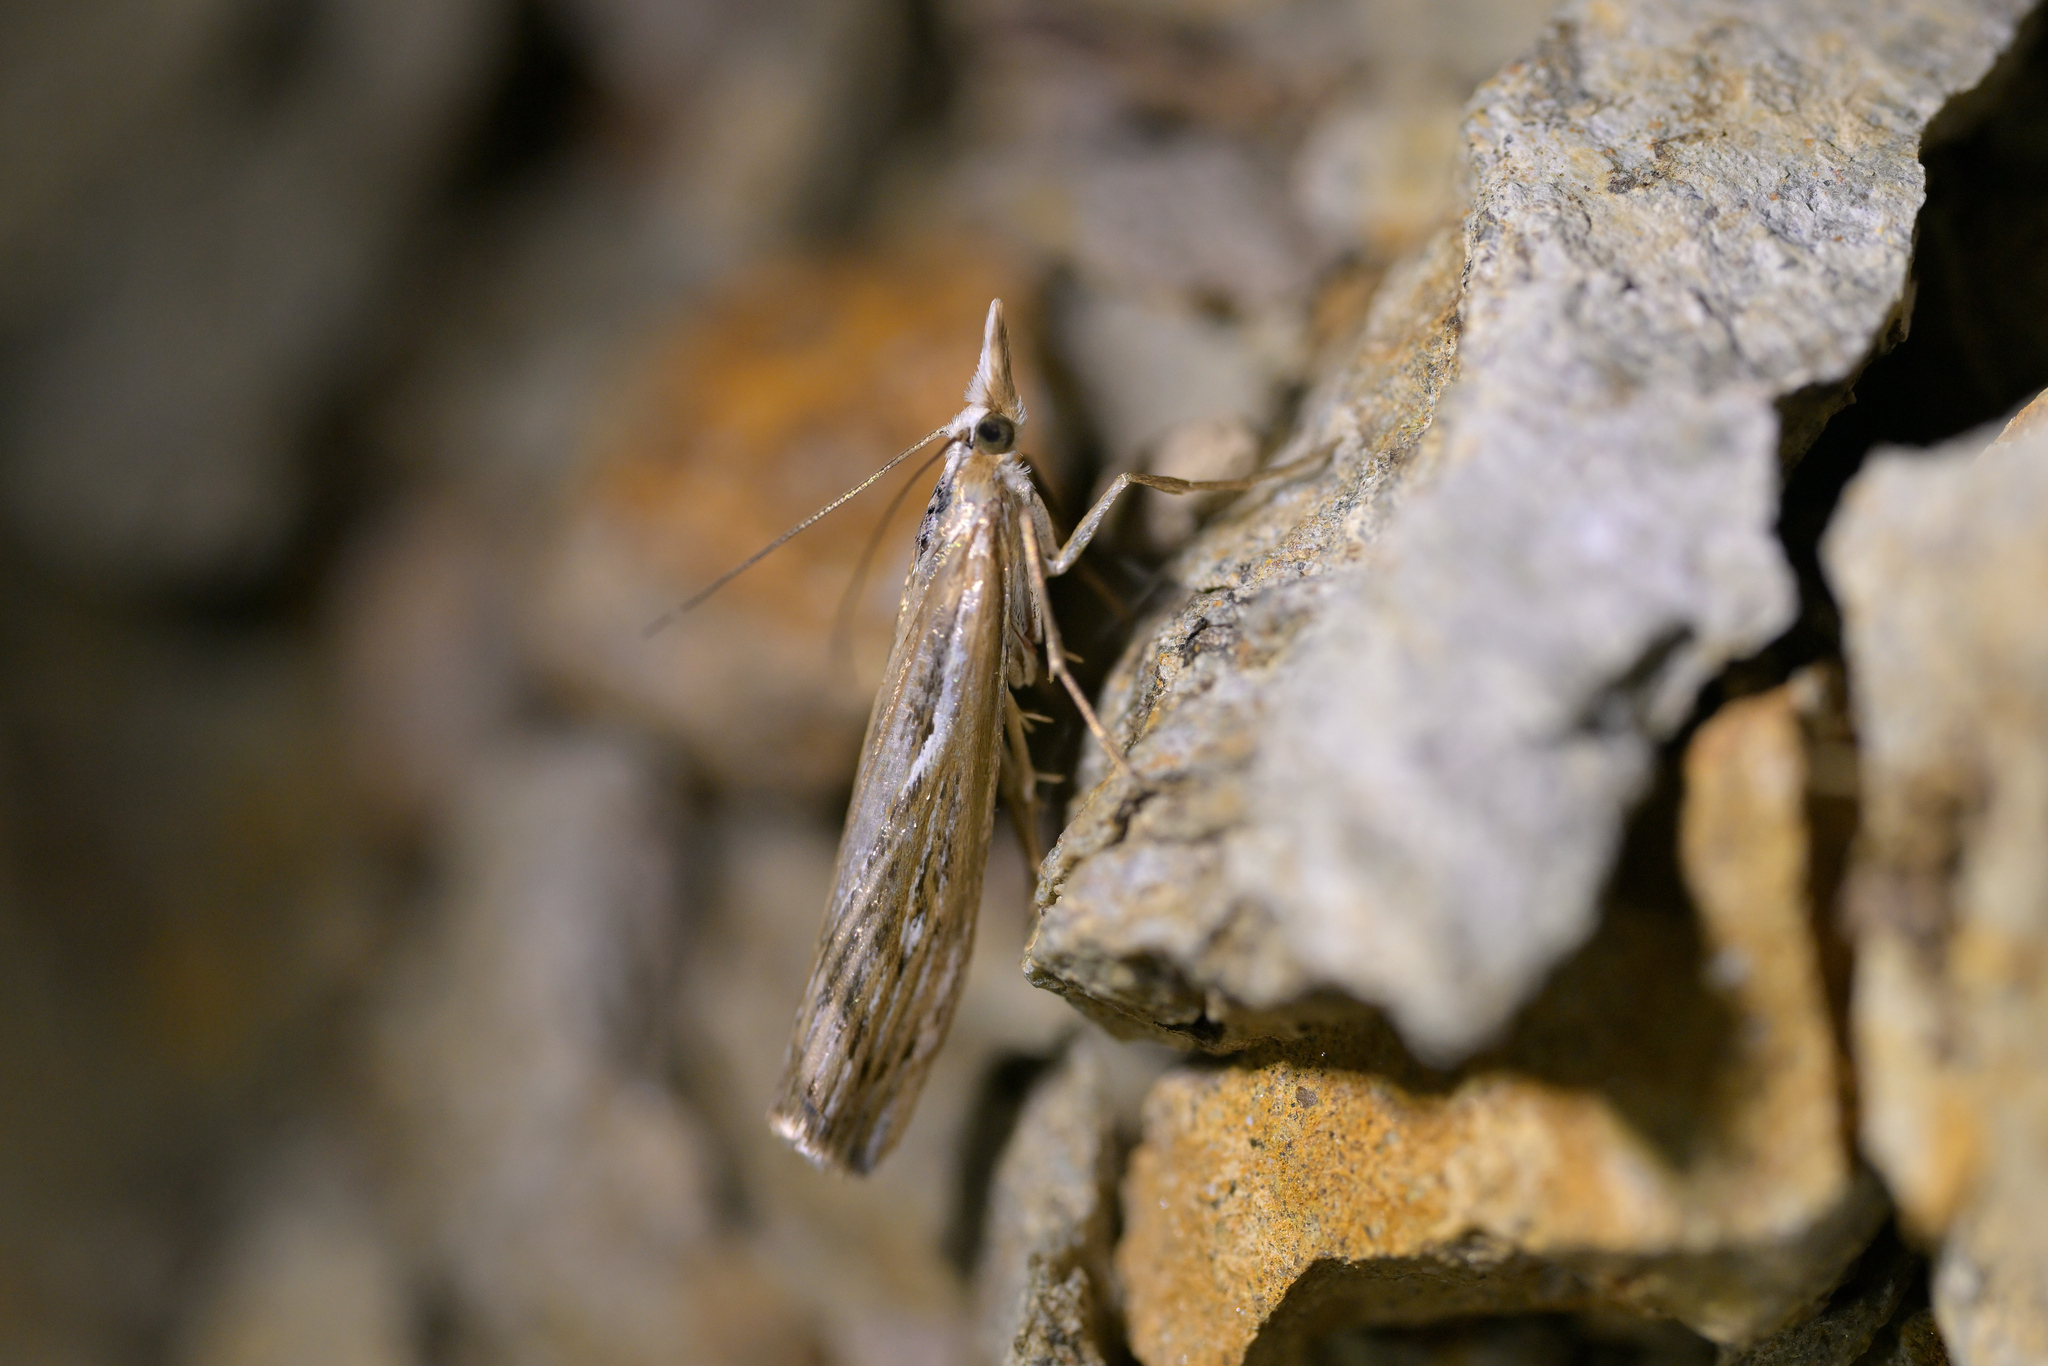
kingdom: Animalia
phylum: Arthropoda
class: Insecta
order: Lepidoptera
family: Crambidae
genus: Orocrambus
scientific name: Orocrambus harpophorus
